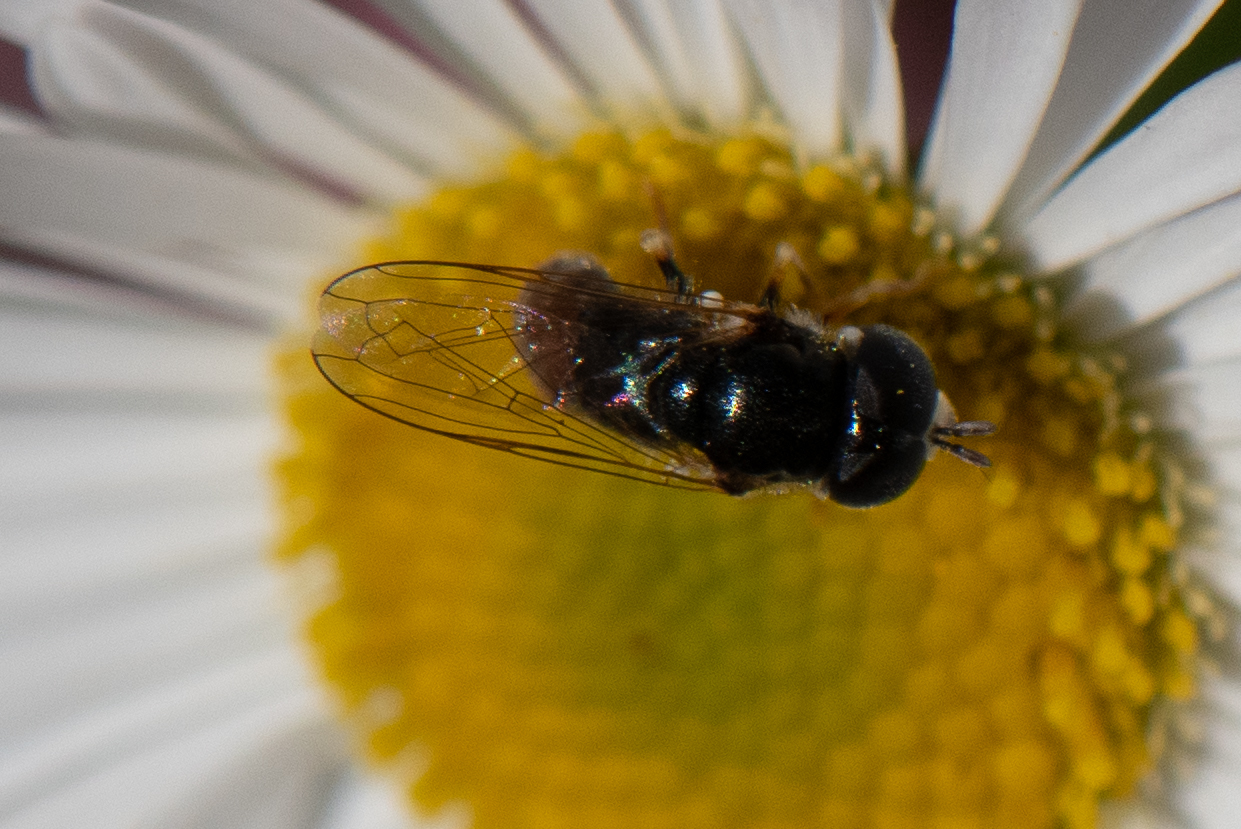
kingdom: Animalia
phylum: Arthropoda
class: Insecta
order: Diptera
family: Syrphidae
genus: Paragus
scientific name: Paragus haemorrhous
